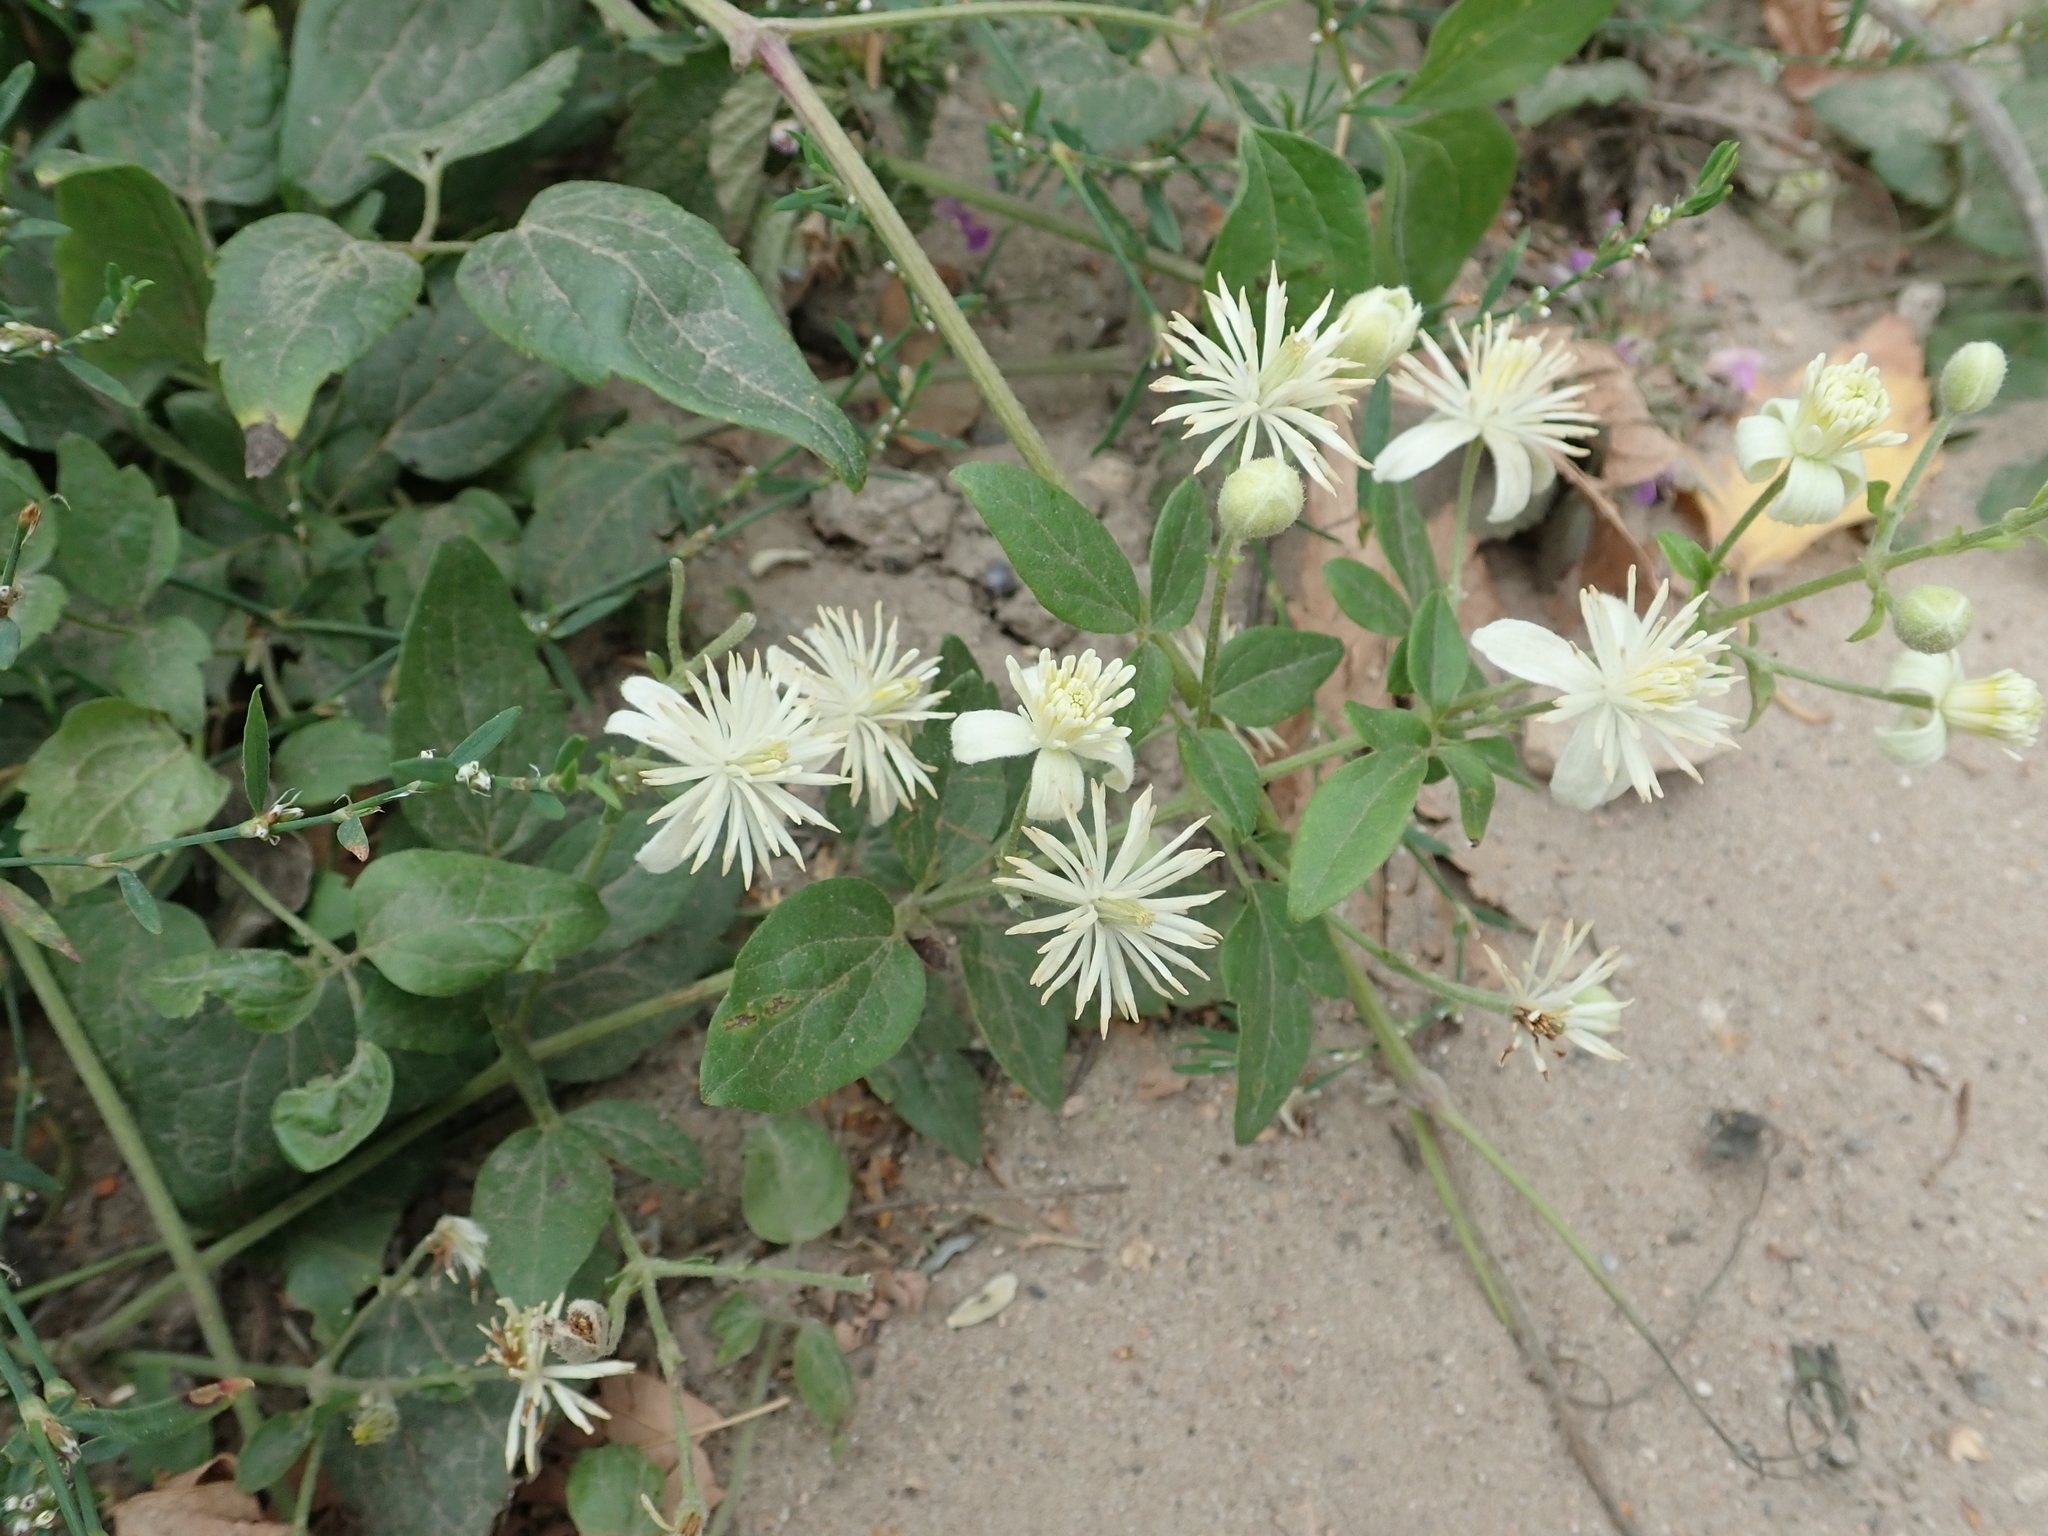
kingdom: Plantae
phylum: Tracheophyta
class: Magnoliopsida
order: Ranunculales
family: Ranunculaceae
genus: Clematis
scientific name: Clematis vitalba
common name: Evergreen clematis
